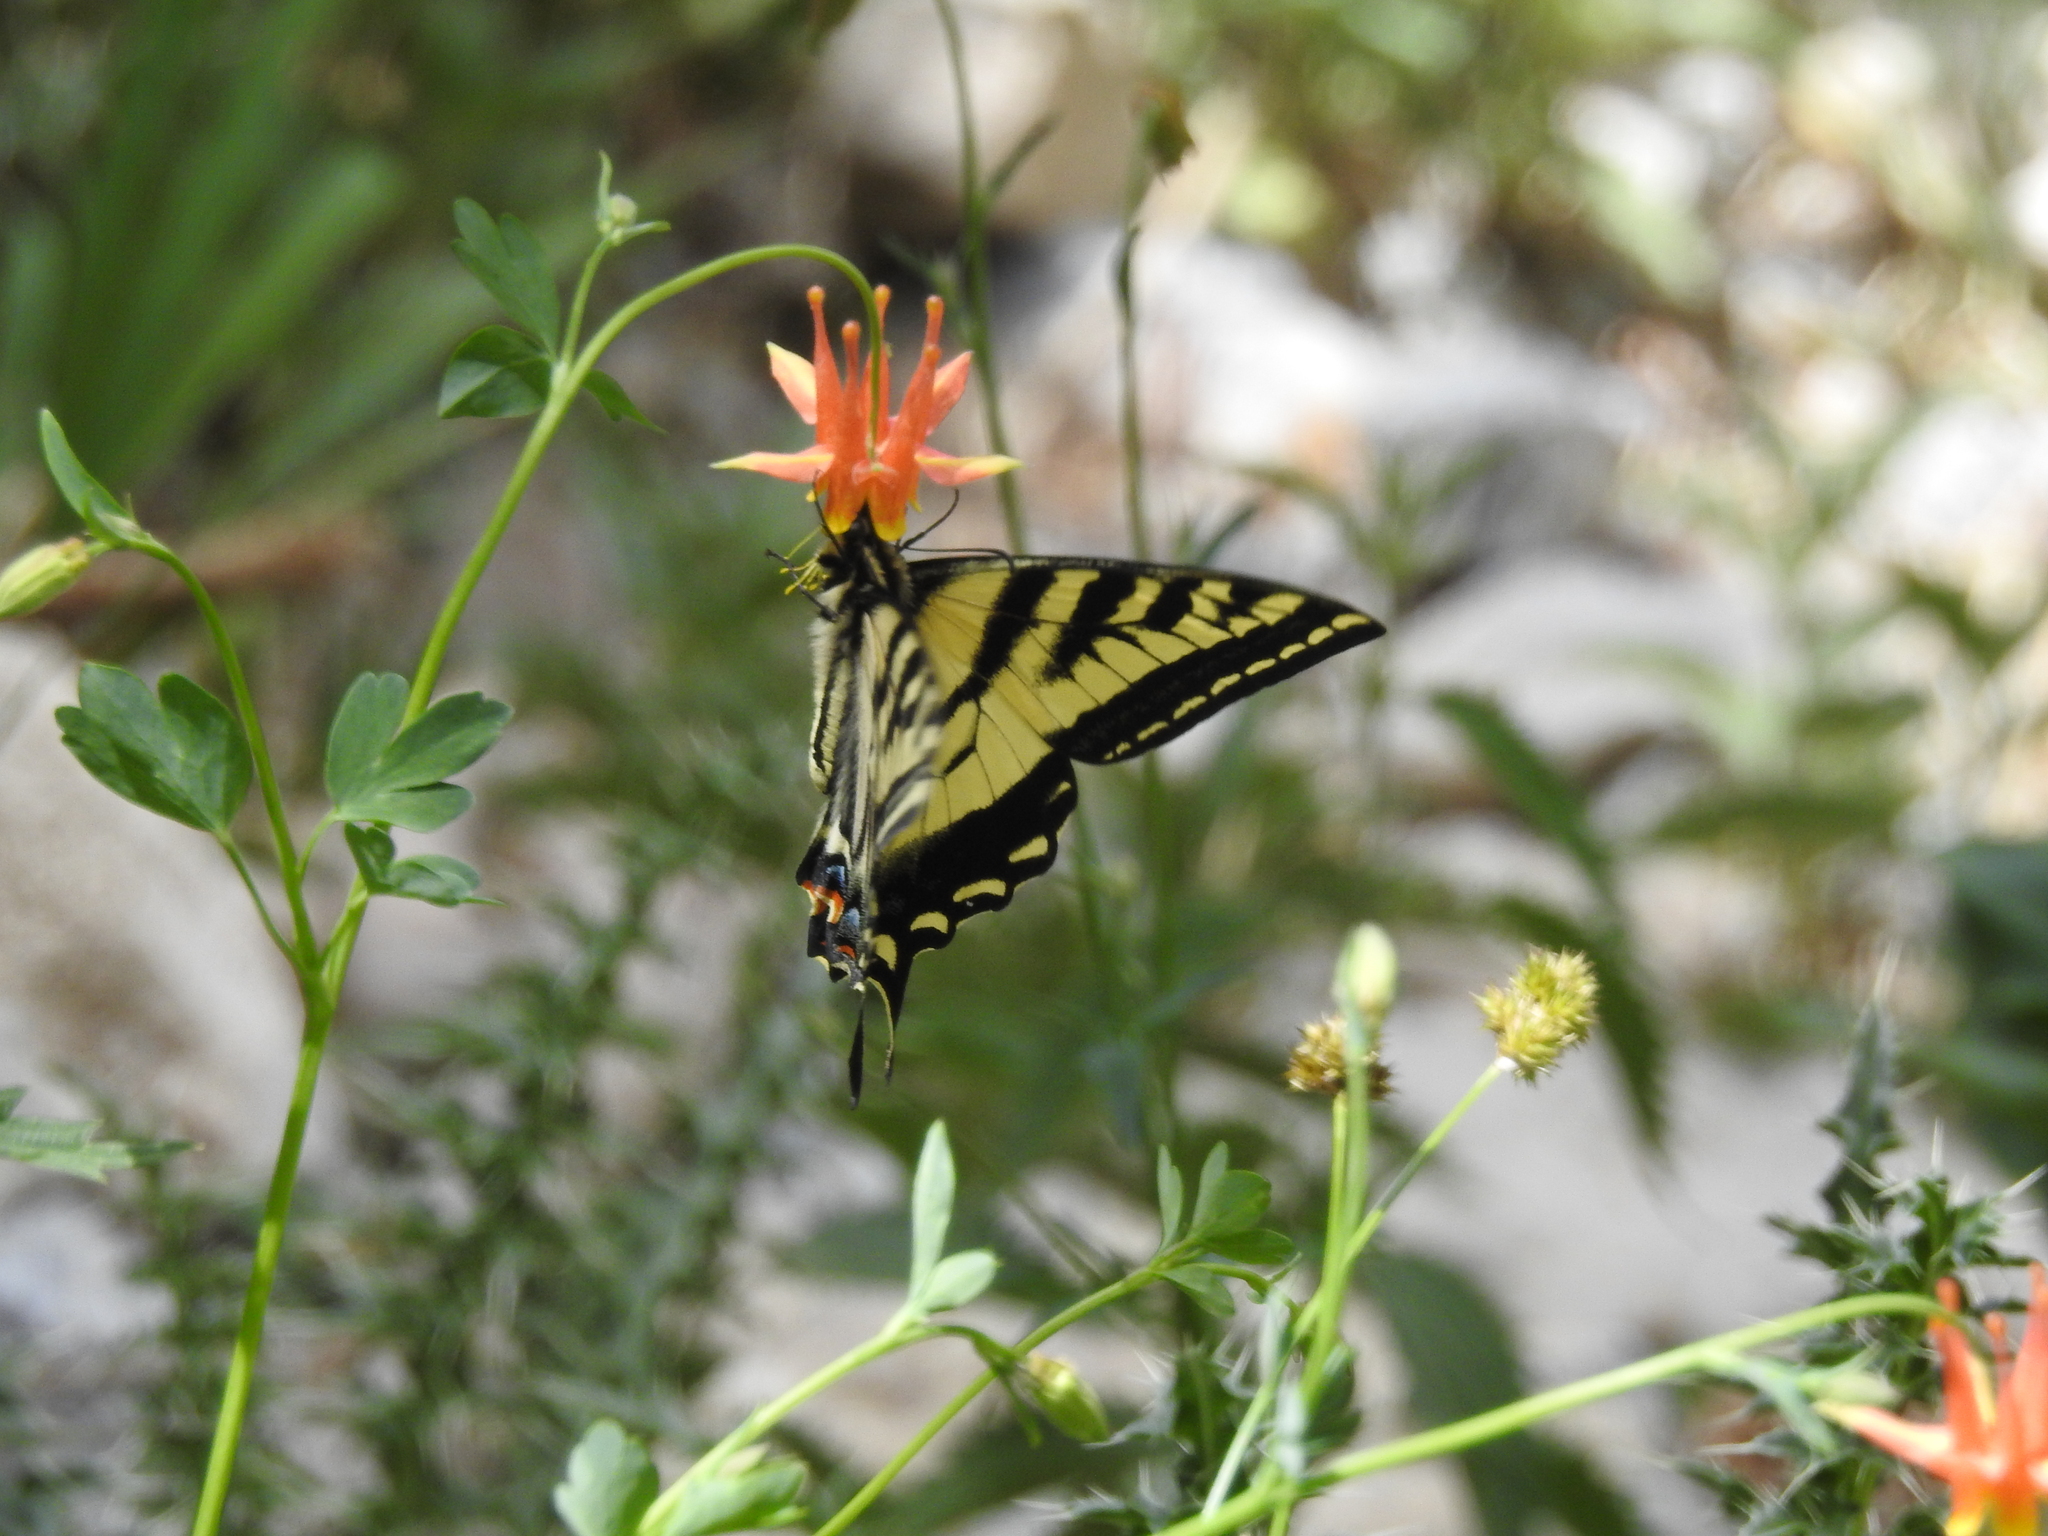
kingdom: Animalia
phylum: Arthropoda
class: Insecta
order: Lepidoptera
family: Papilionidae
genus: Papilio
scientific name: Papilio rutulus
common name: Western tiger swallowtail
